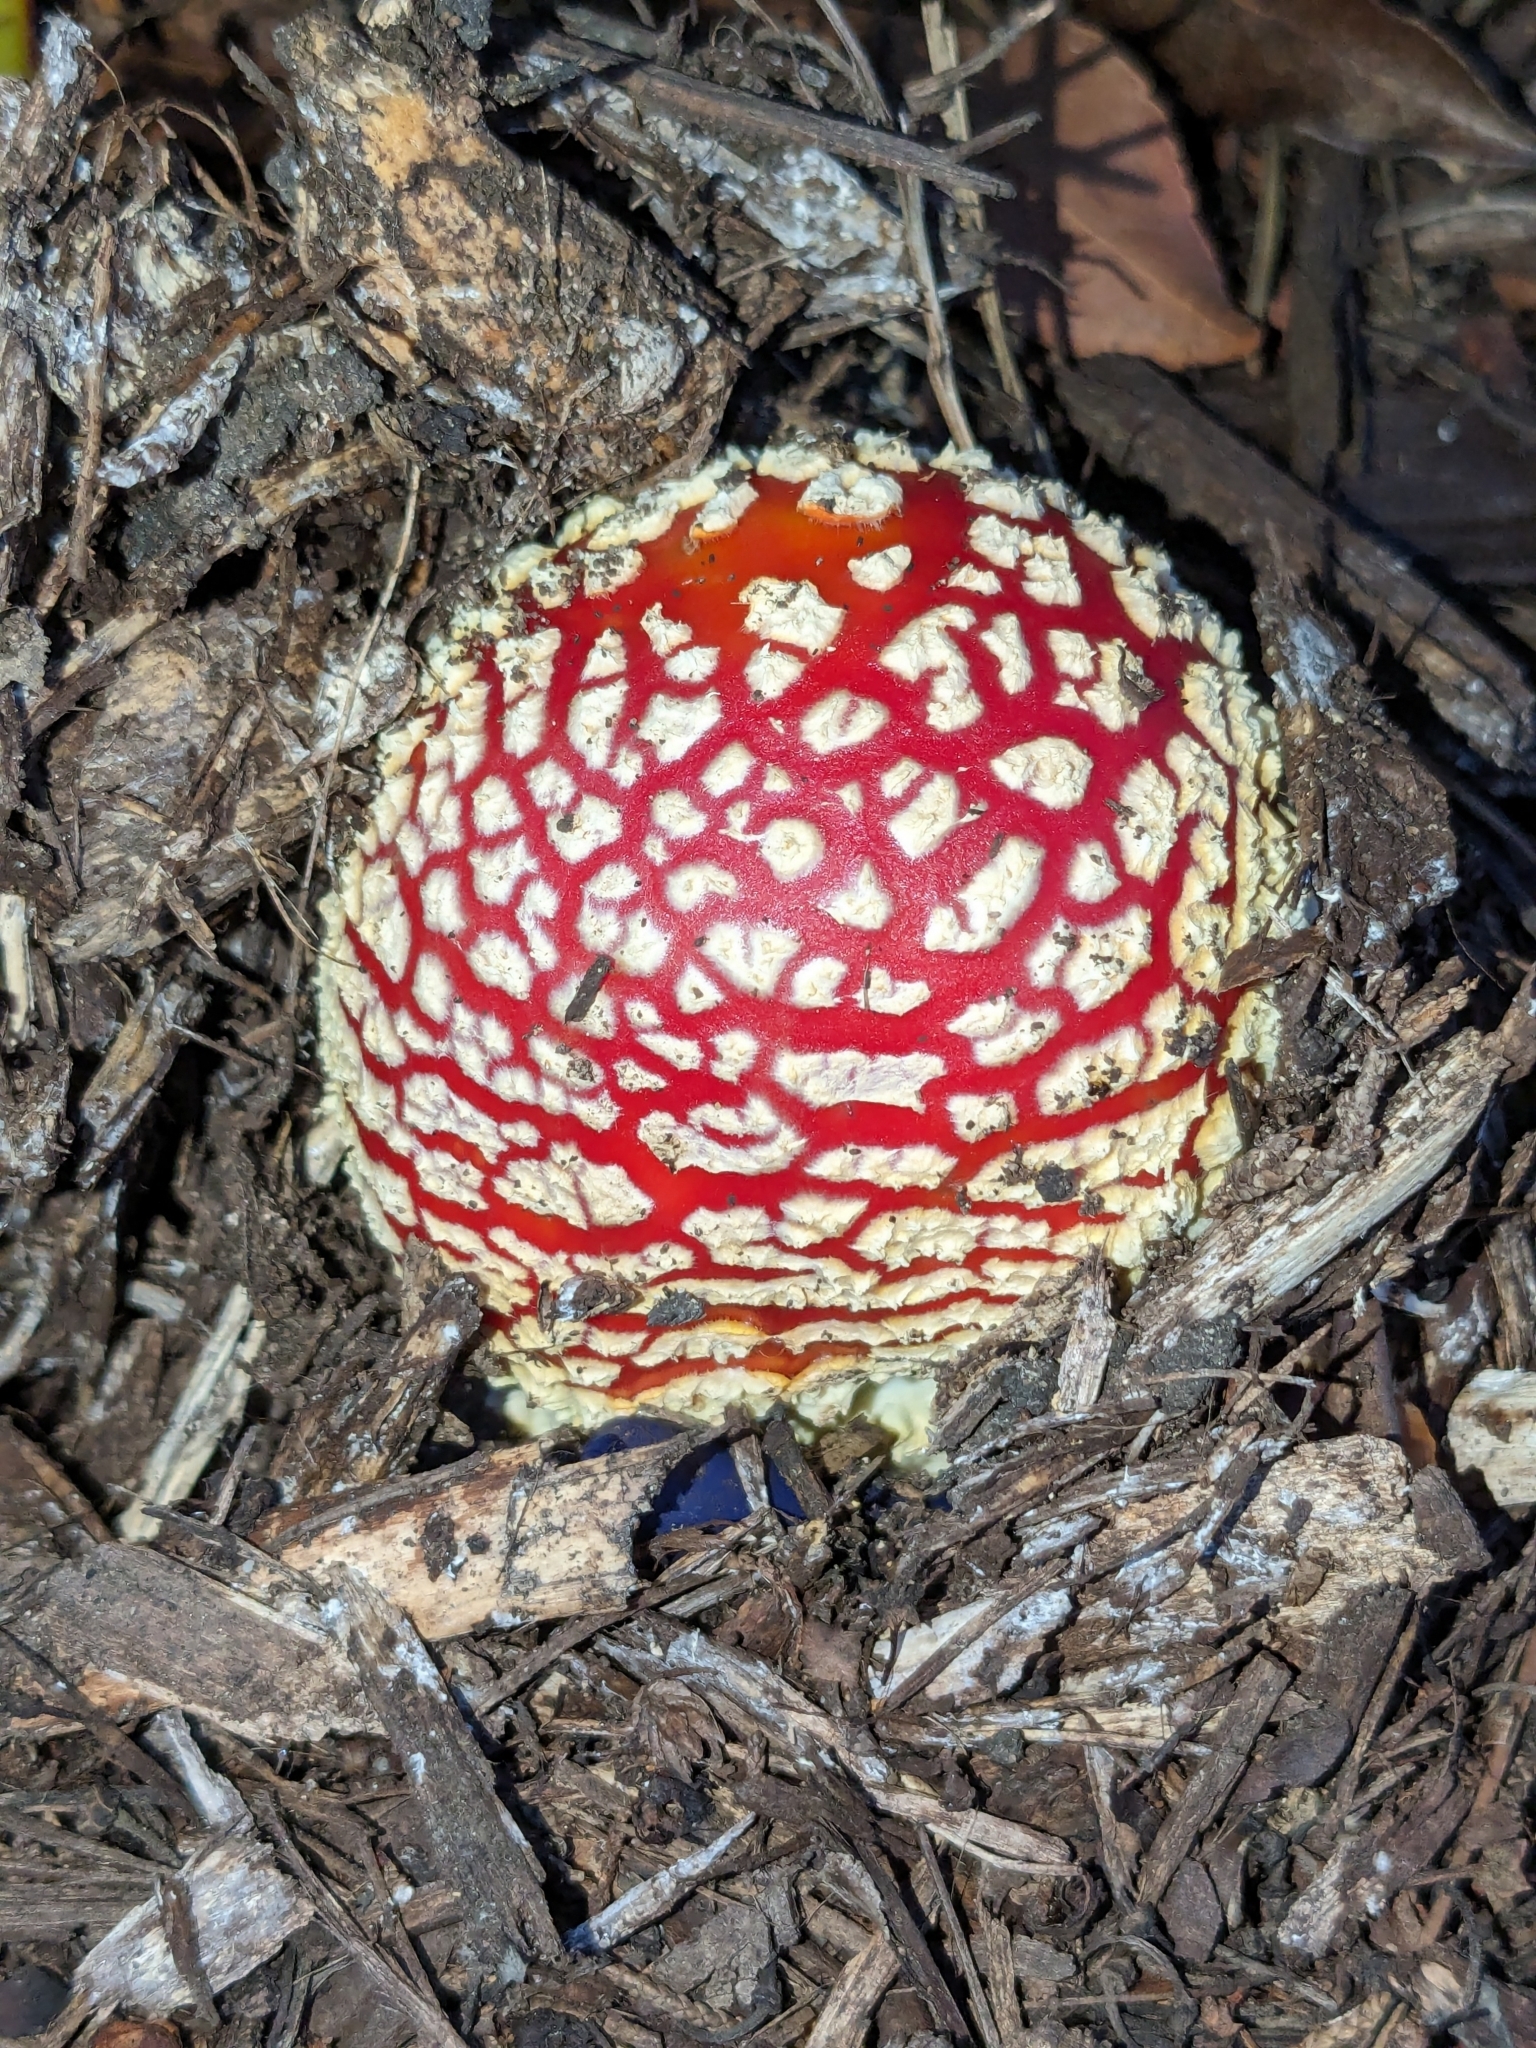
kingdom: Fungi
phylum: Basidiomycota
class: Agaricomycetes
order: Agaricales
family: Amanitaceae
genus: Amanita
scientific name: Amanita muscaria
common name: Fly agaric
